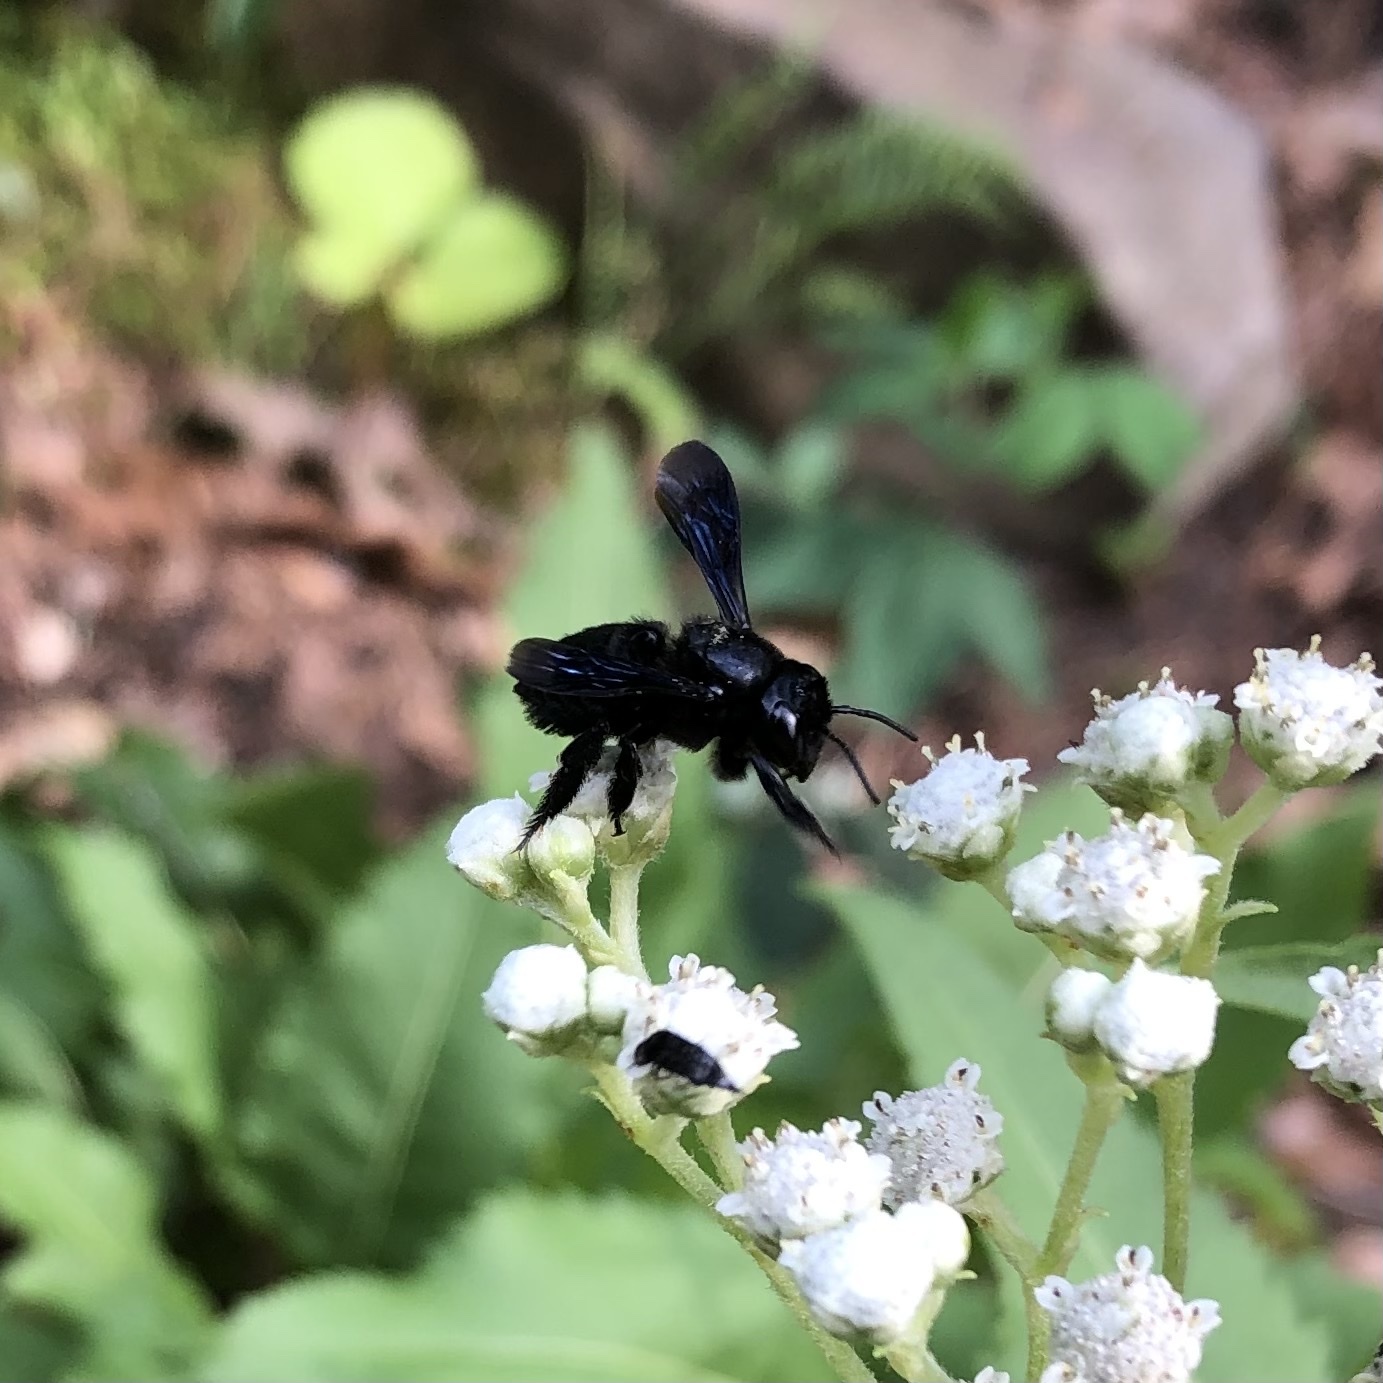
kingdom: Animalia
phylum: Arthropoda
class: Insecta
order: Hymenoptera
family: Megachilidae
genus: Megachile
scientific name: Megachile xylocopoides
